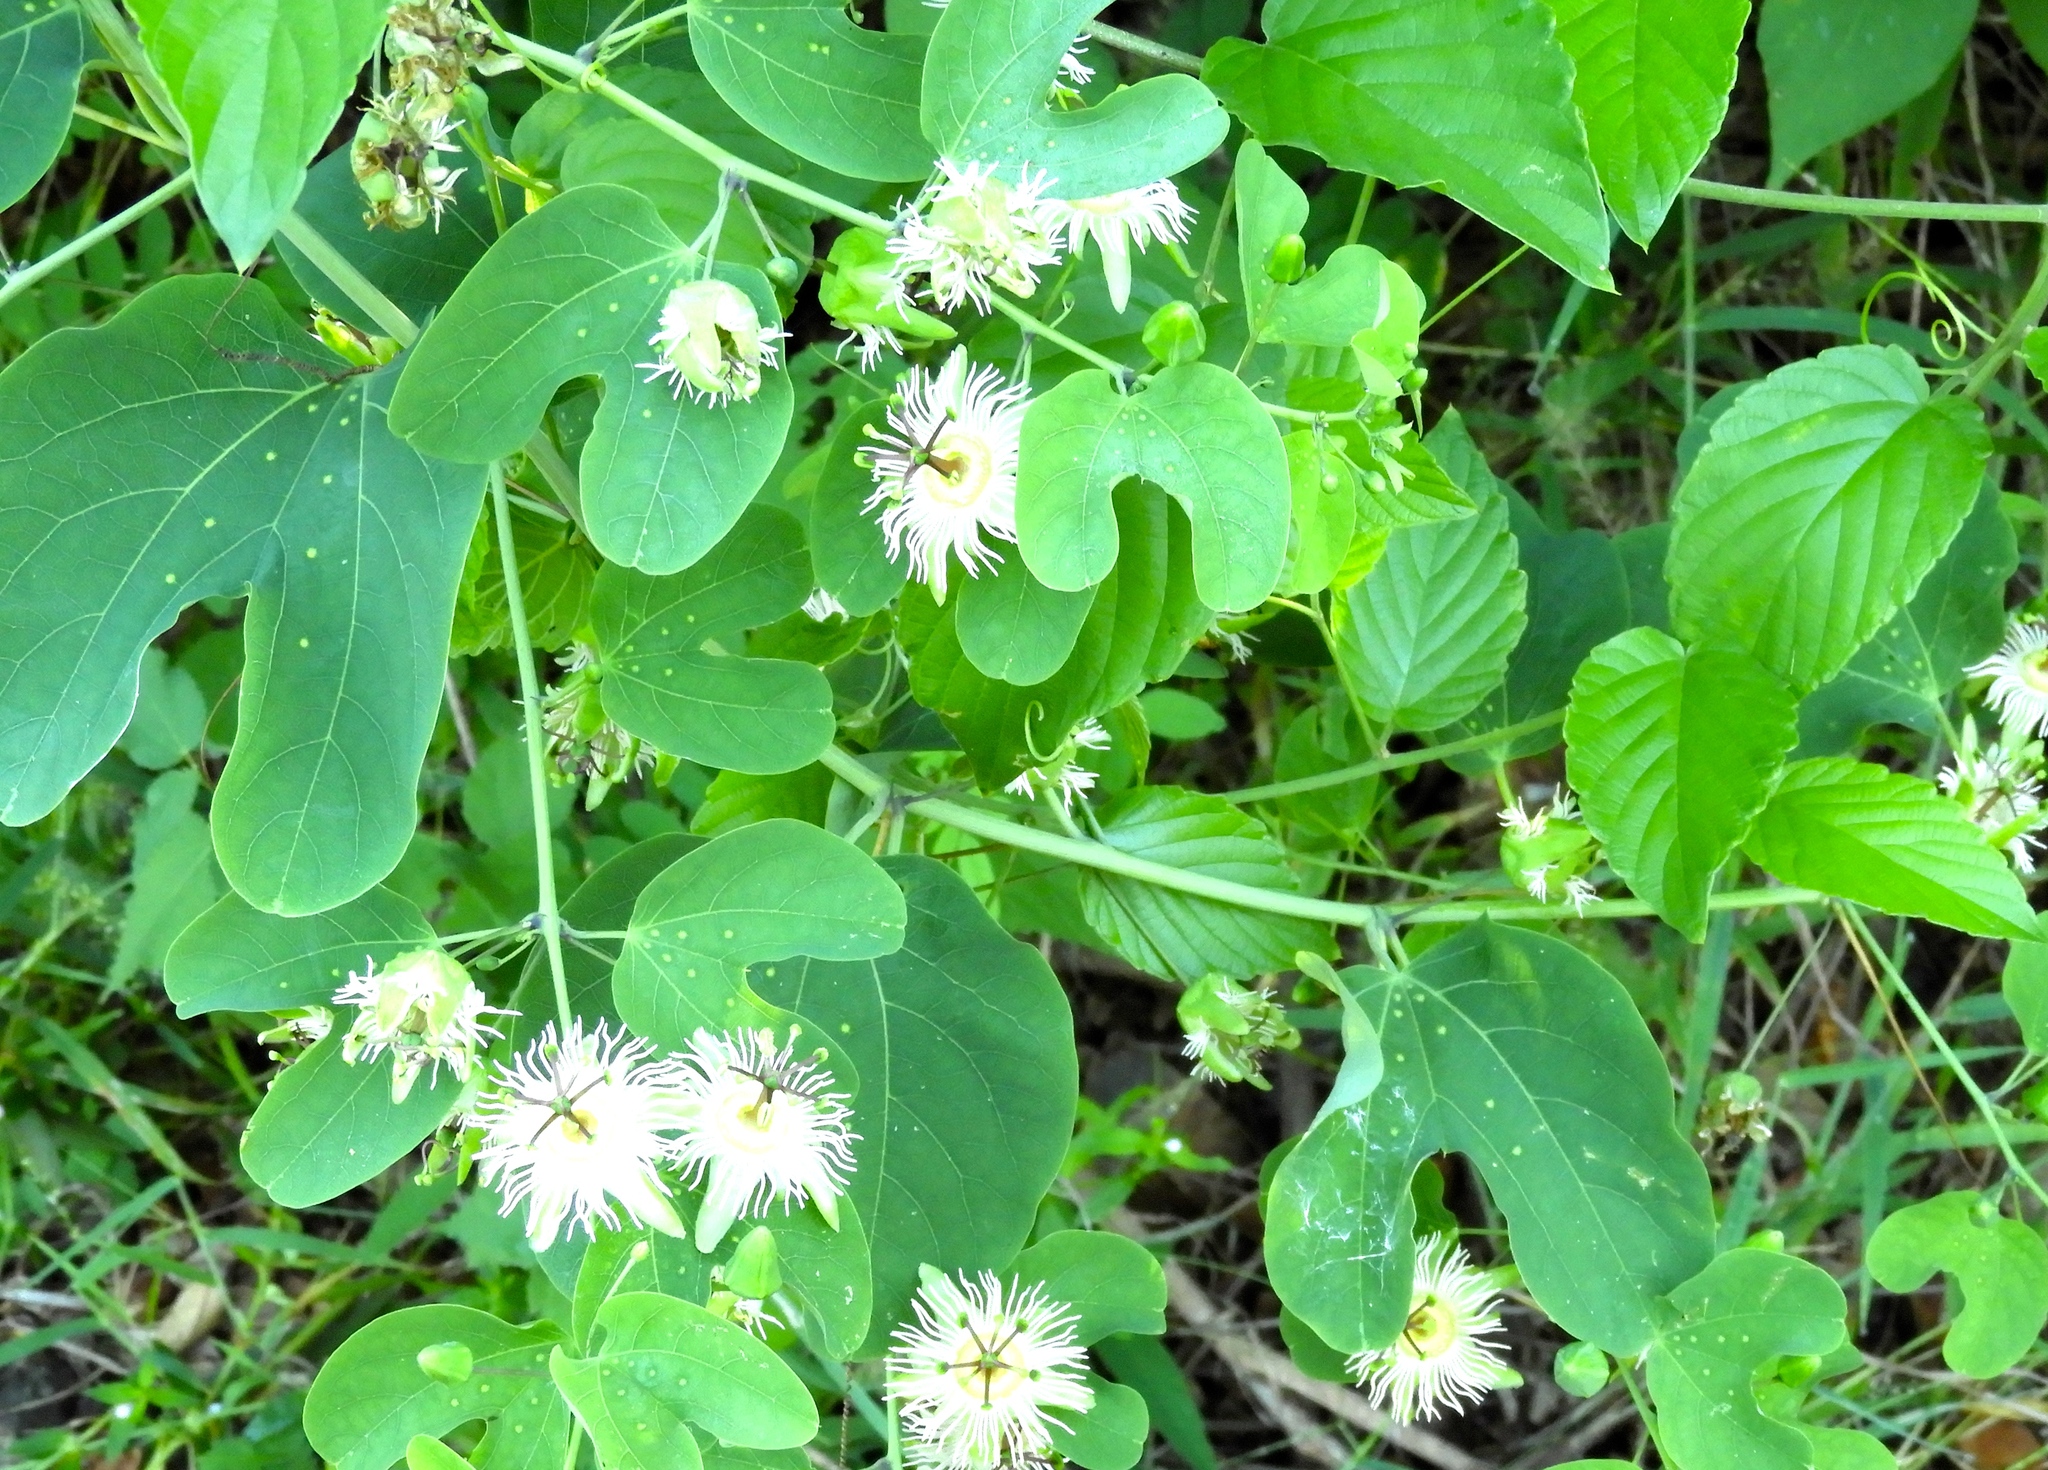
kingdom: Plantae
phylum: Tracheophyta
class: Magnoliopsida
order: Malpighiales
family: Passifloraceae
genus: Passiflora
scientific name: Passiflora mexicana
